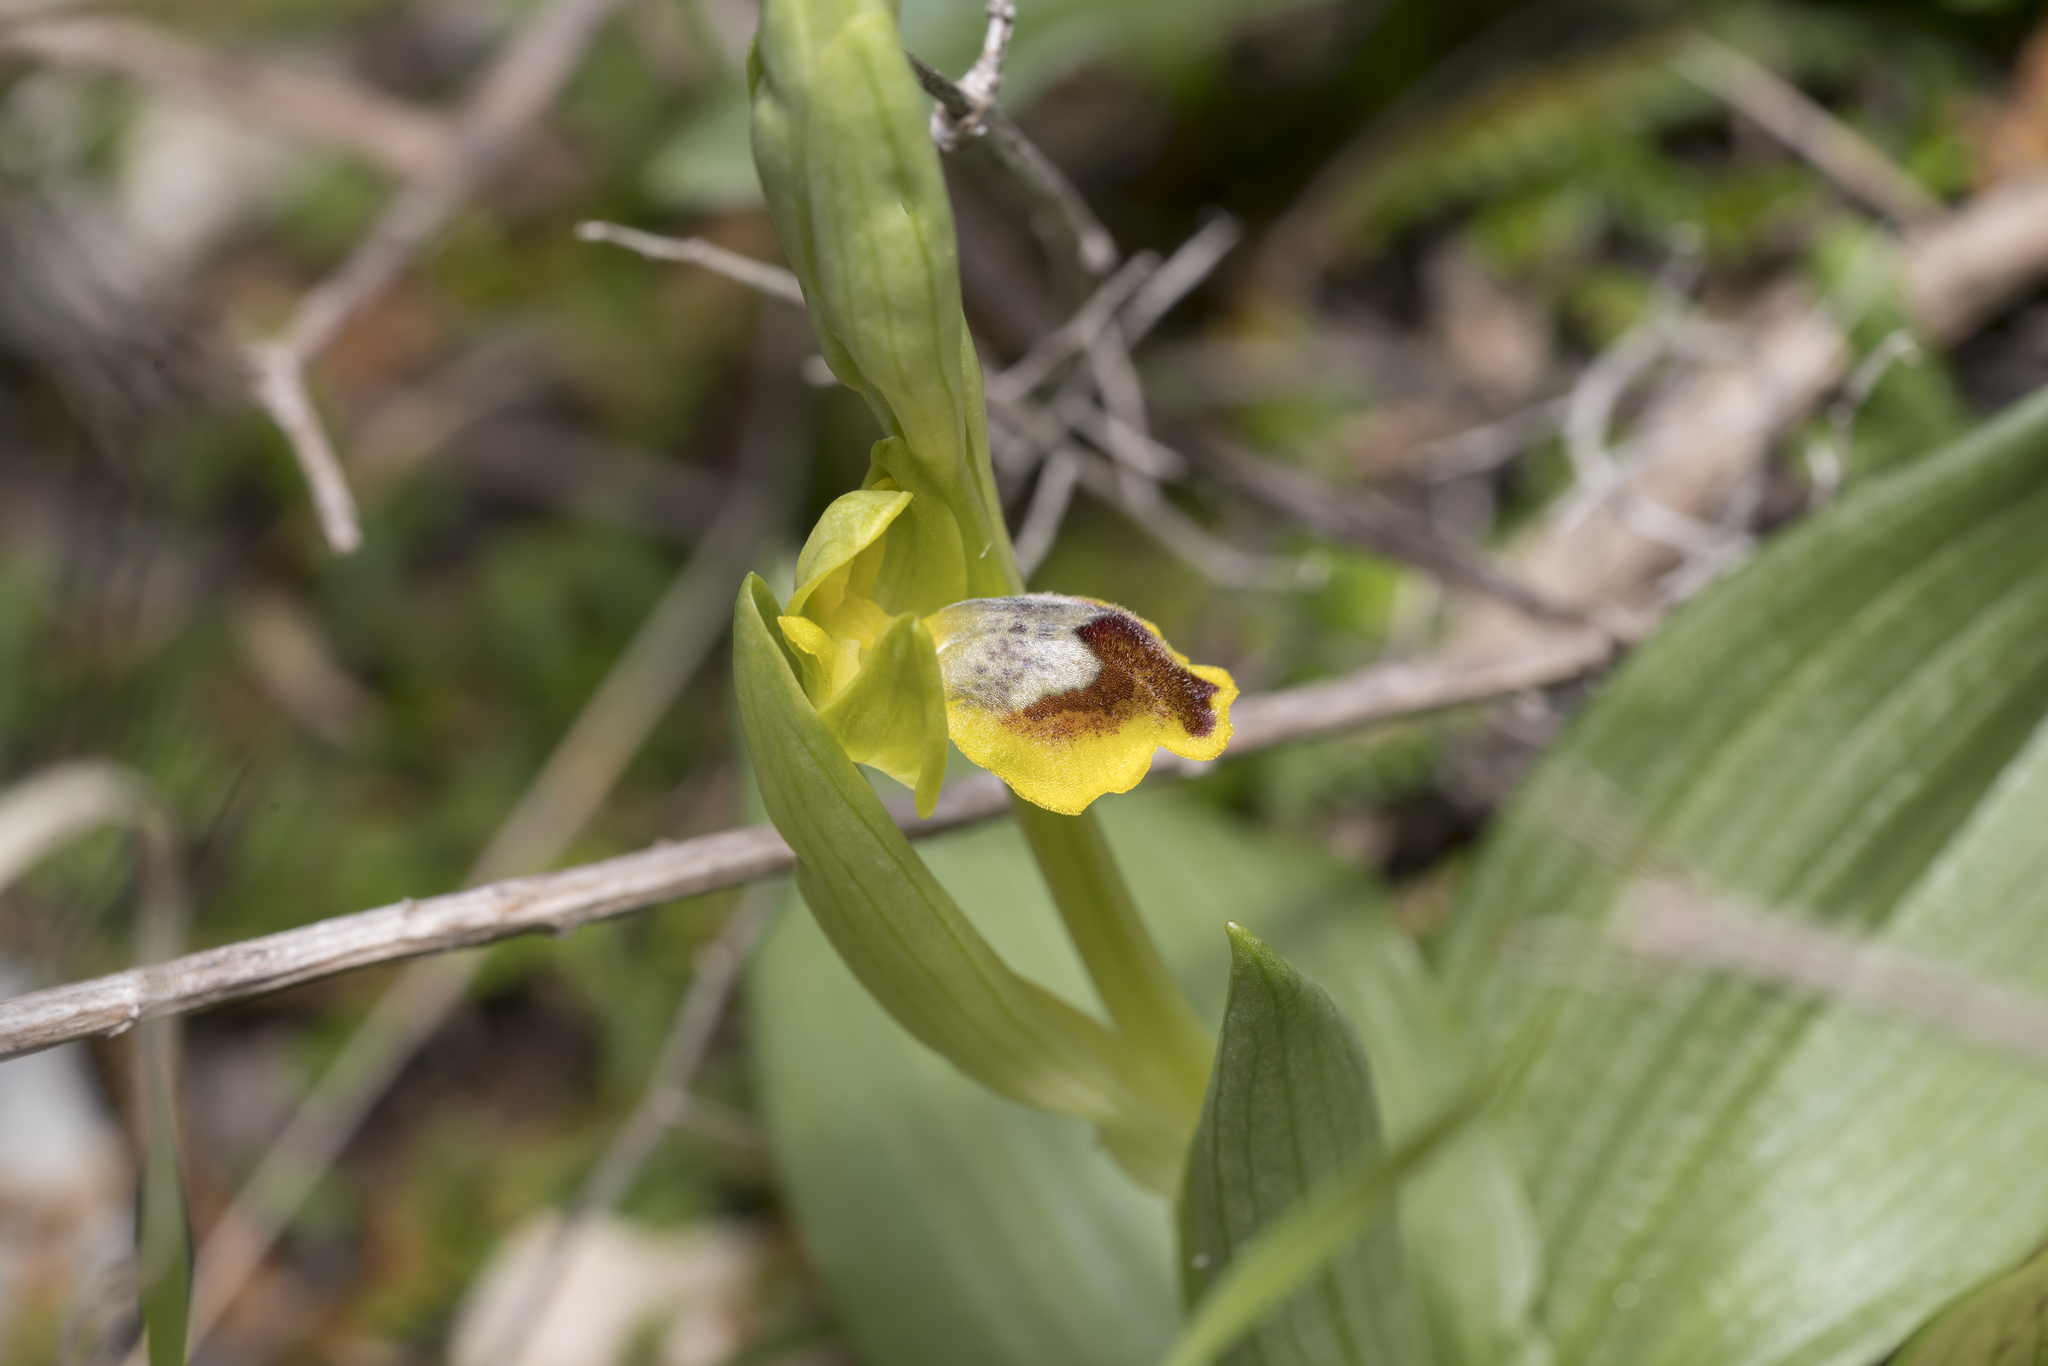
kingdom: Plantae
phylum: Tracheophyta
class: Liliopsida
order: Asparagales
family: Orchidaceae
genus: Ophrys
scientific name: Ophrys lutea
